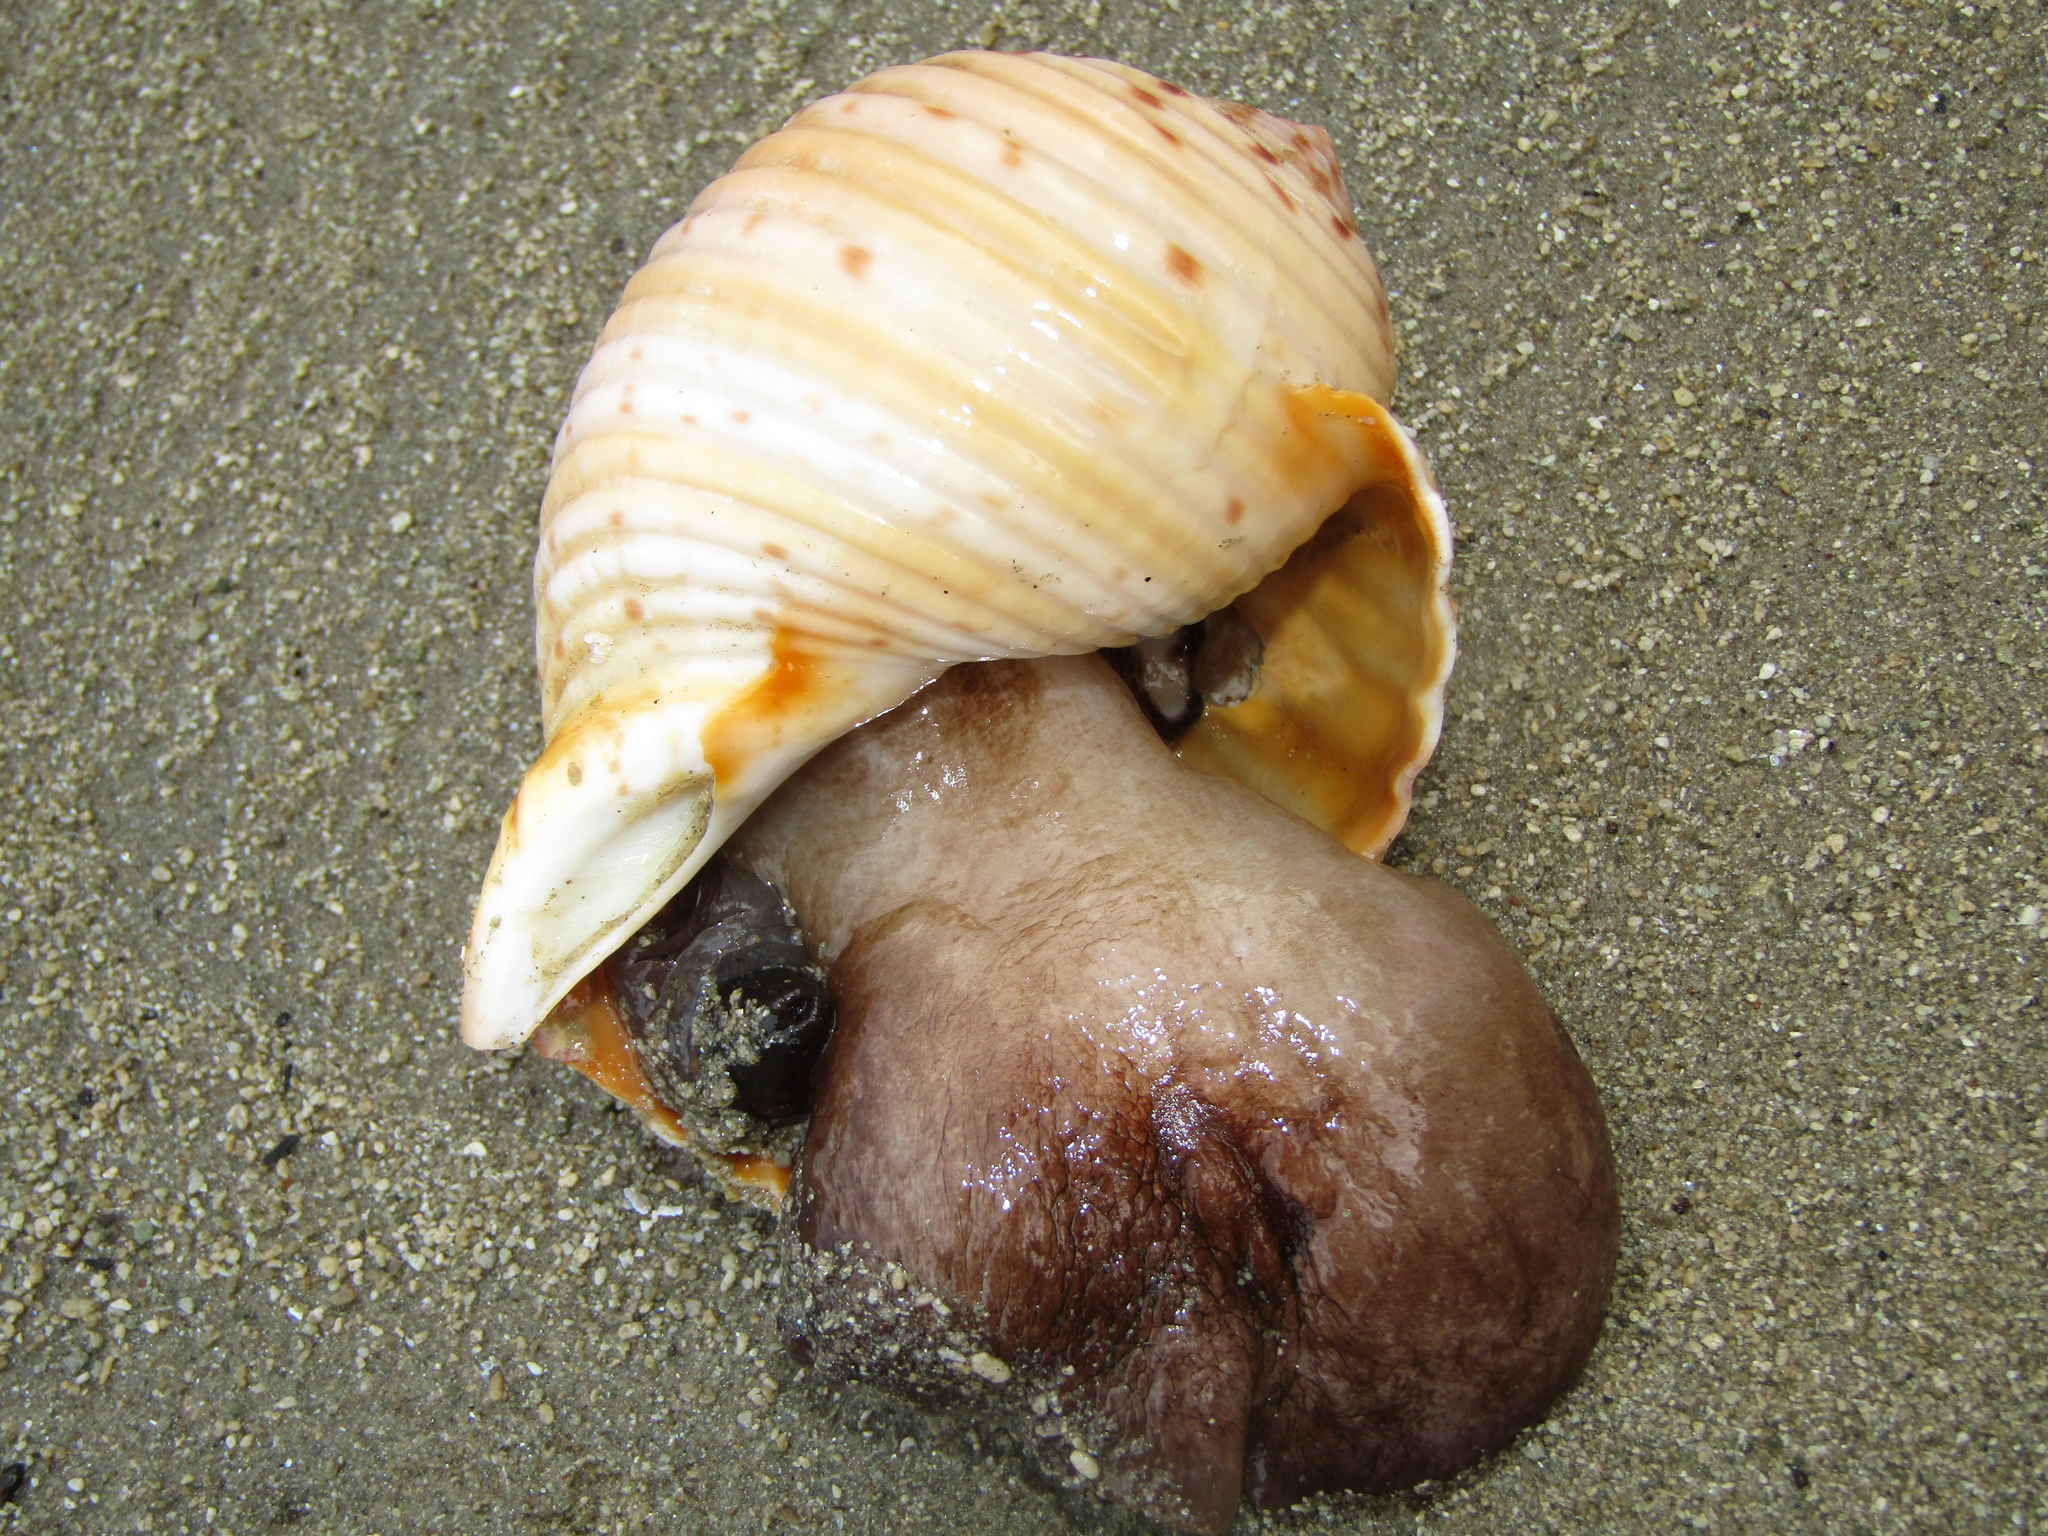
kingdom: Animalia
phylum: Mollusca
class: Gastropoda
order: Littorinimorpha
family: Tonnidae
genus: Tonna
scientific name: Tonna tankervillii
